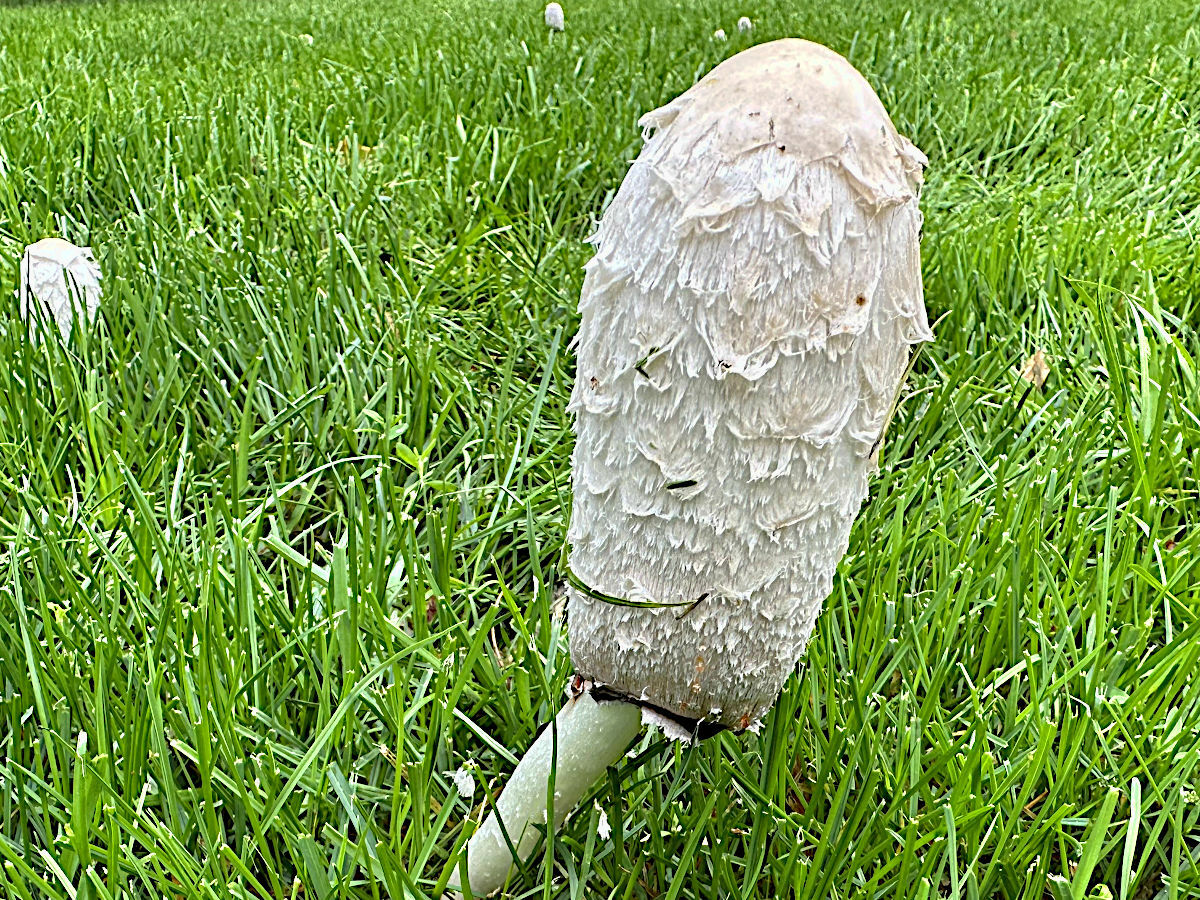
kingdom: Fungi
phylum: Basidiomycota
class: Agaricomycetes
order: Agaricales
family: Agaricaceae
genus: Coprinus
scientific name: Coprinus comatus
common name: Lawyer's wig
